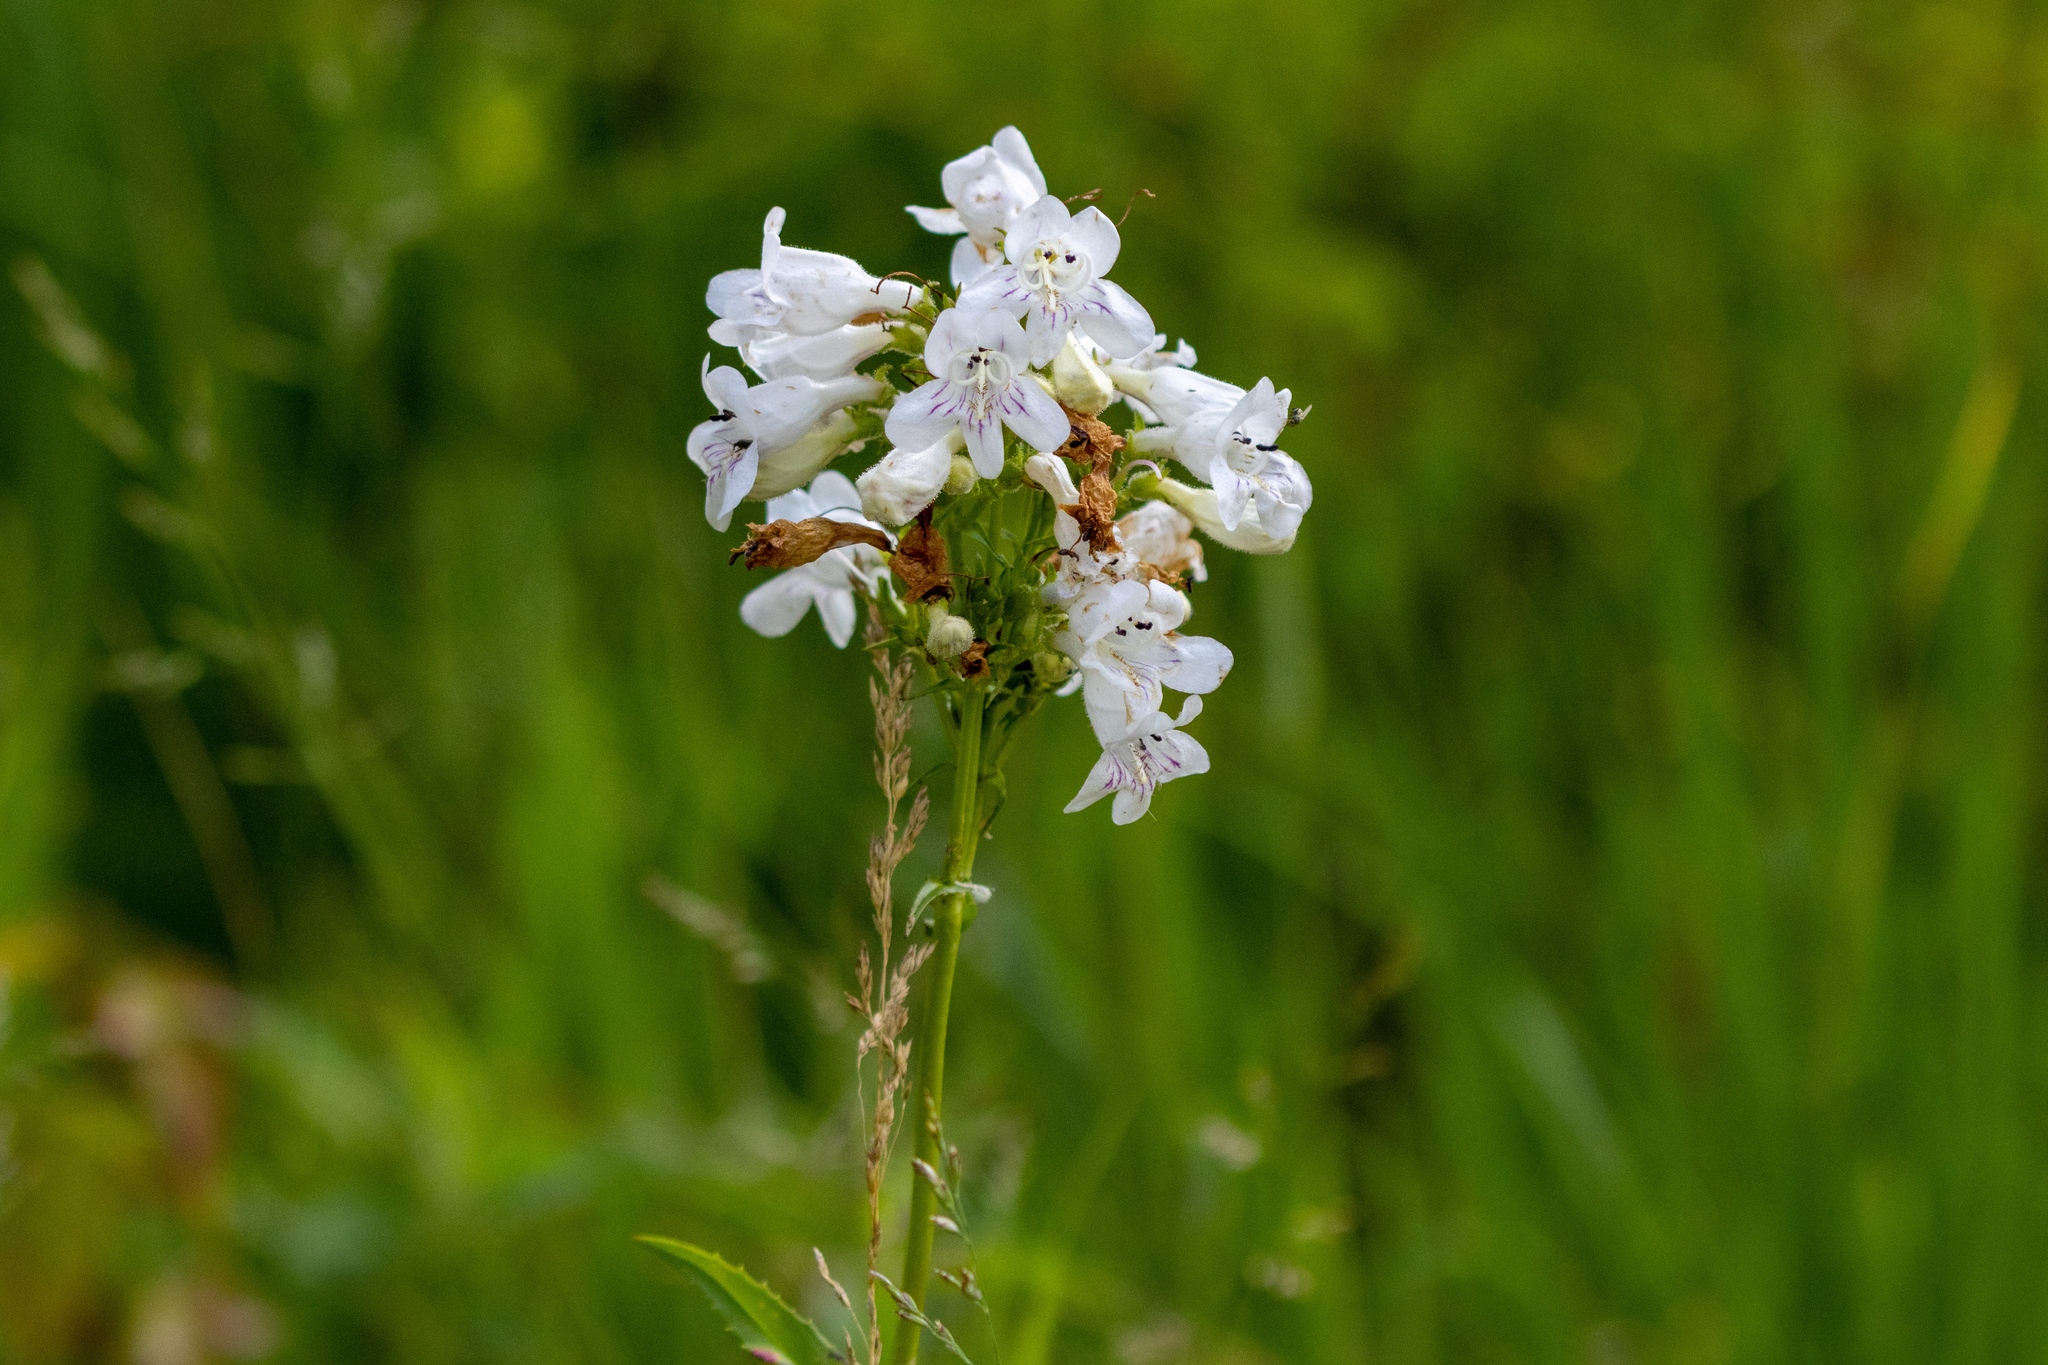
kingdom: Plantae
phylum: Tracheophyta
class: Magnoliopsida
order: Lamiales
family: Plantaginaceae
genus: Penstemon
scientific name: Penstemon digitalis
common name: Foxglove beardtongue
